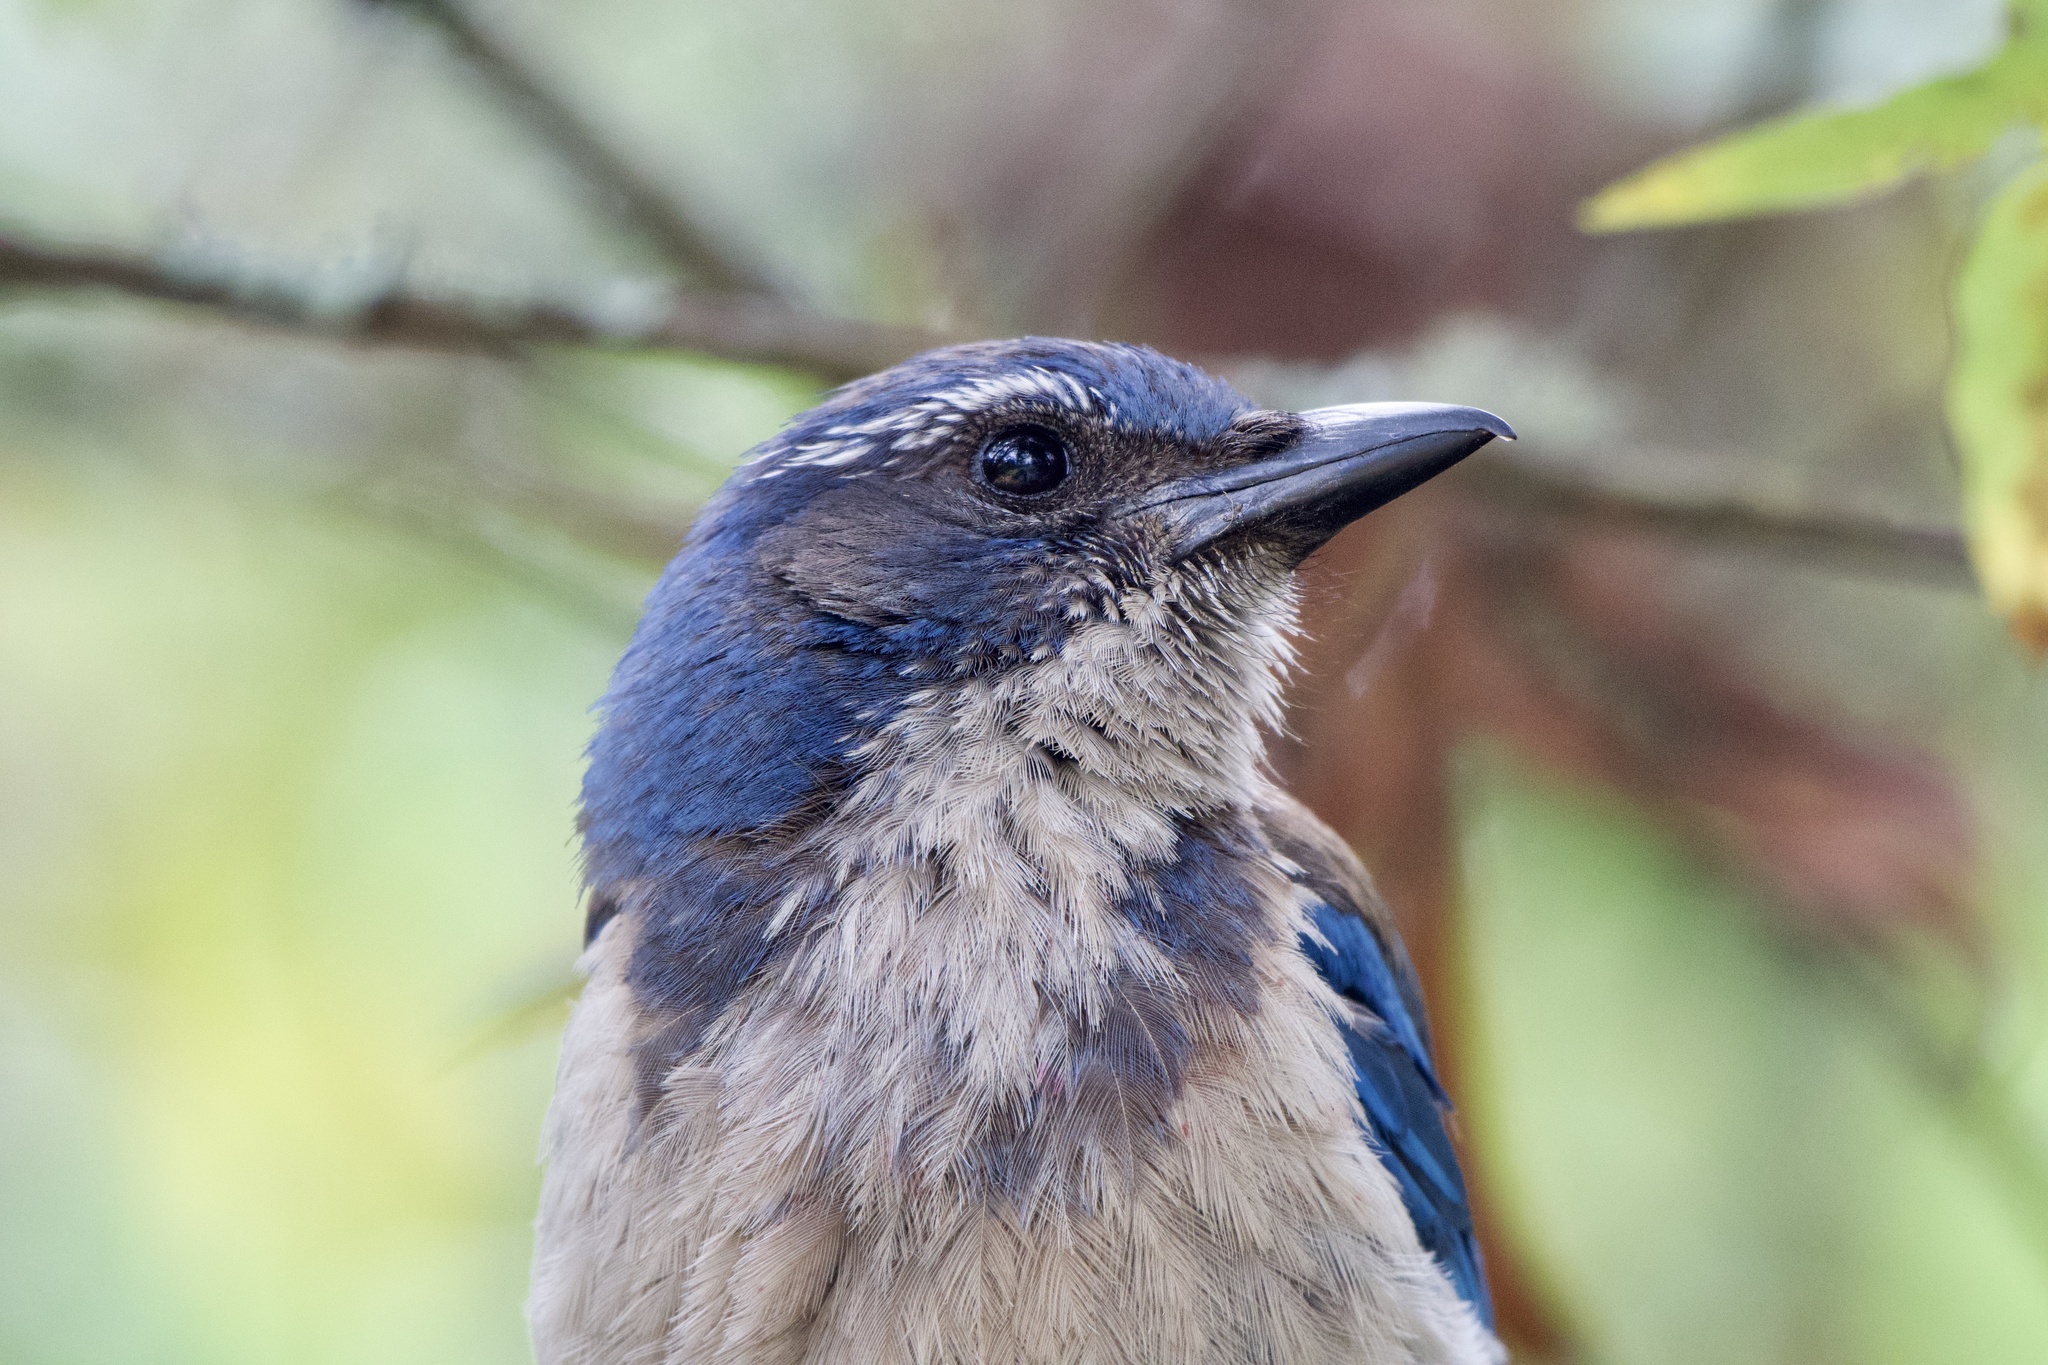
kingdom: Animalia
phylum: Chordata
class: Aves
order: Passeriformes
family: Corvidae
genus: Aphelocoma
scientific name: Aphelocoma californica
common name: California scrub-jay
